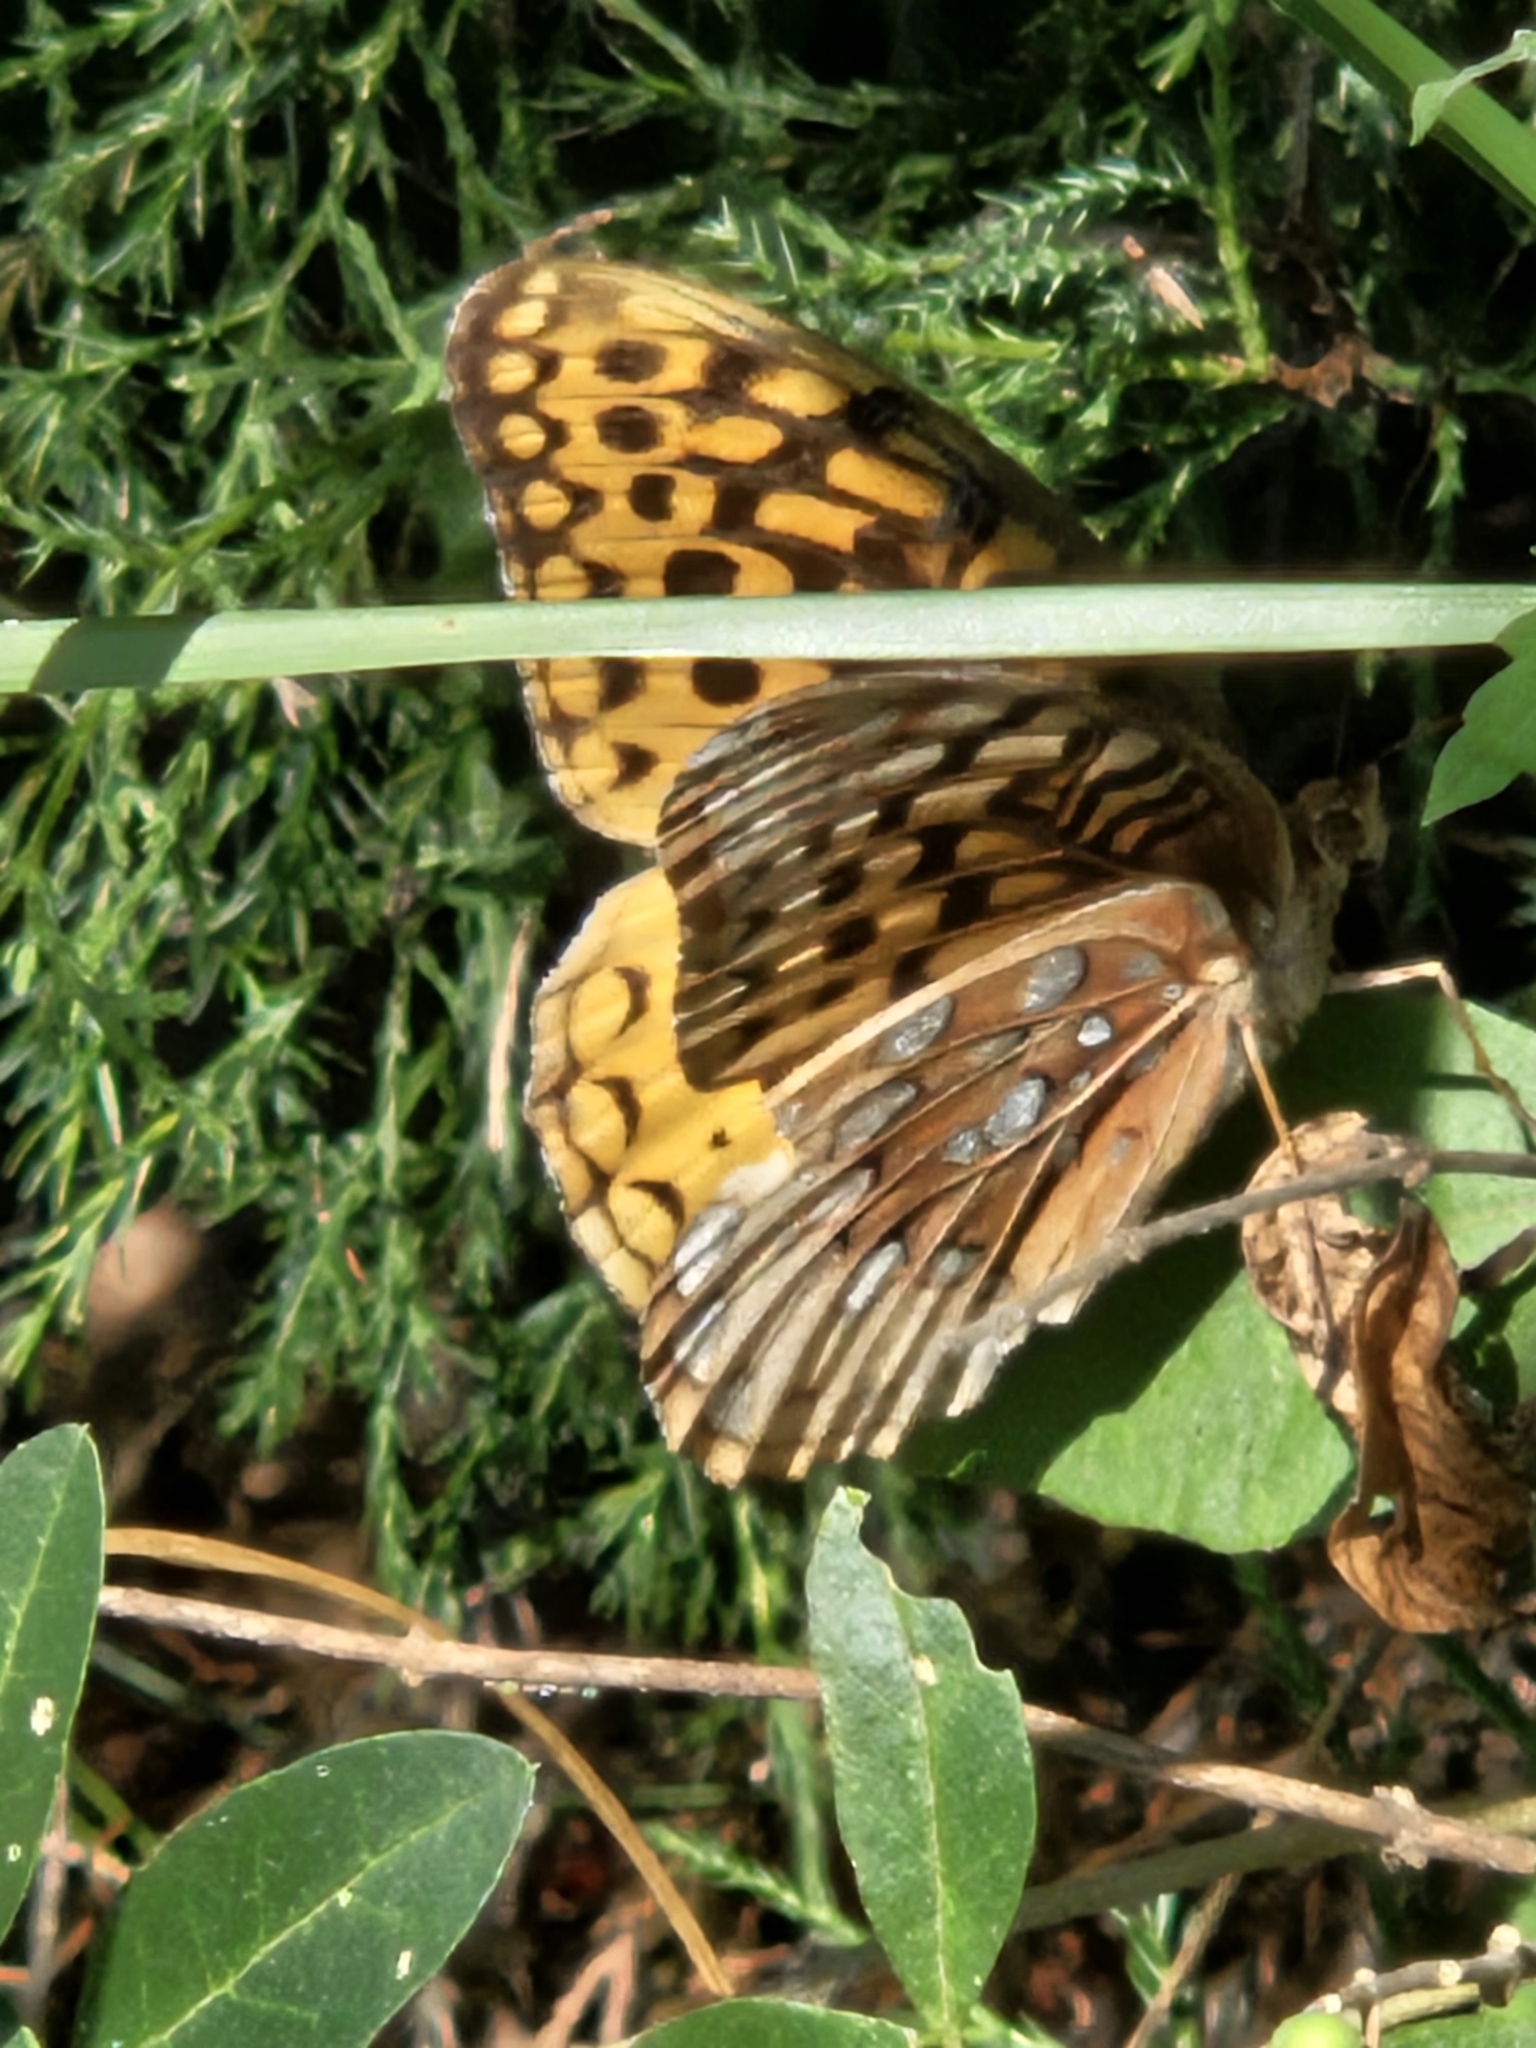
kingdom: Animalia
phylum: Arthropoda
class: Insecta
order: Lepidoptera
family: Nymphalidae
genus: Speyeria
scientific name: Speyeria cybele
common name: Great spangled fritillary
